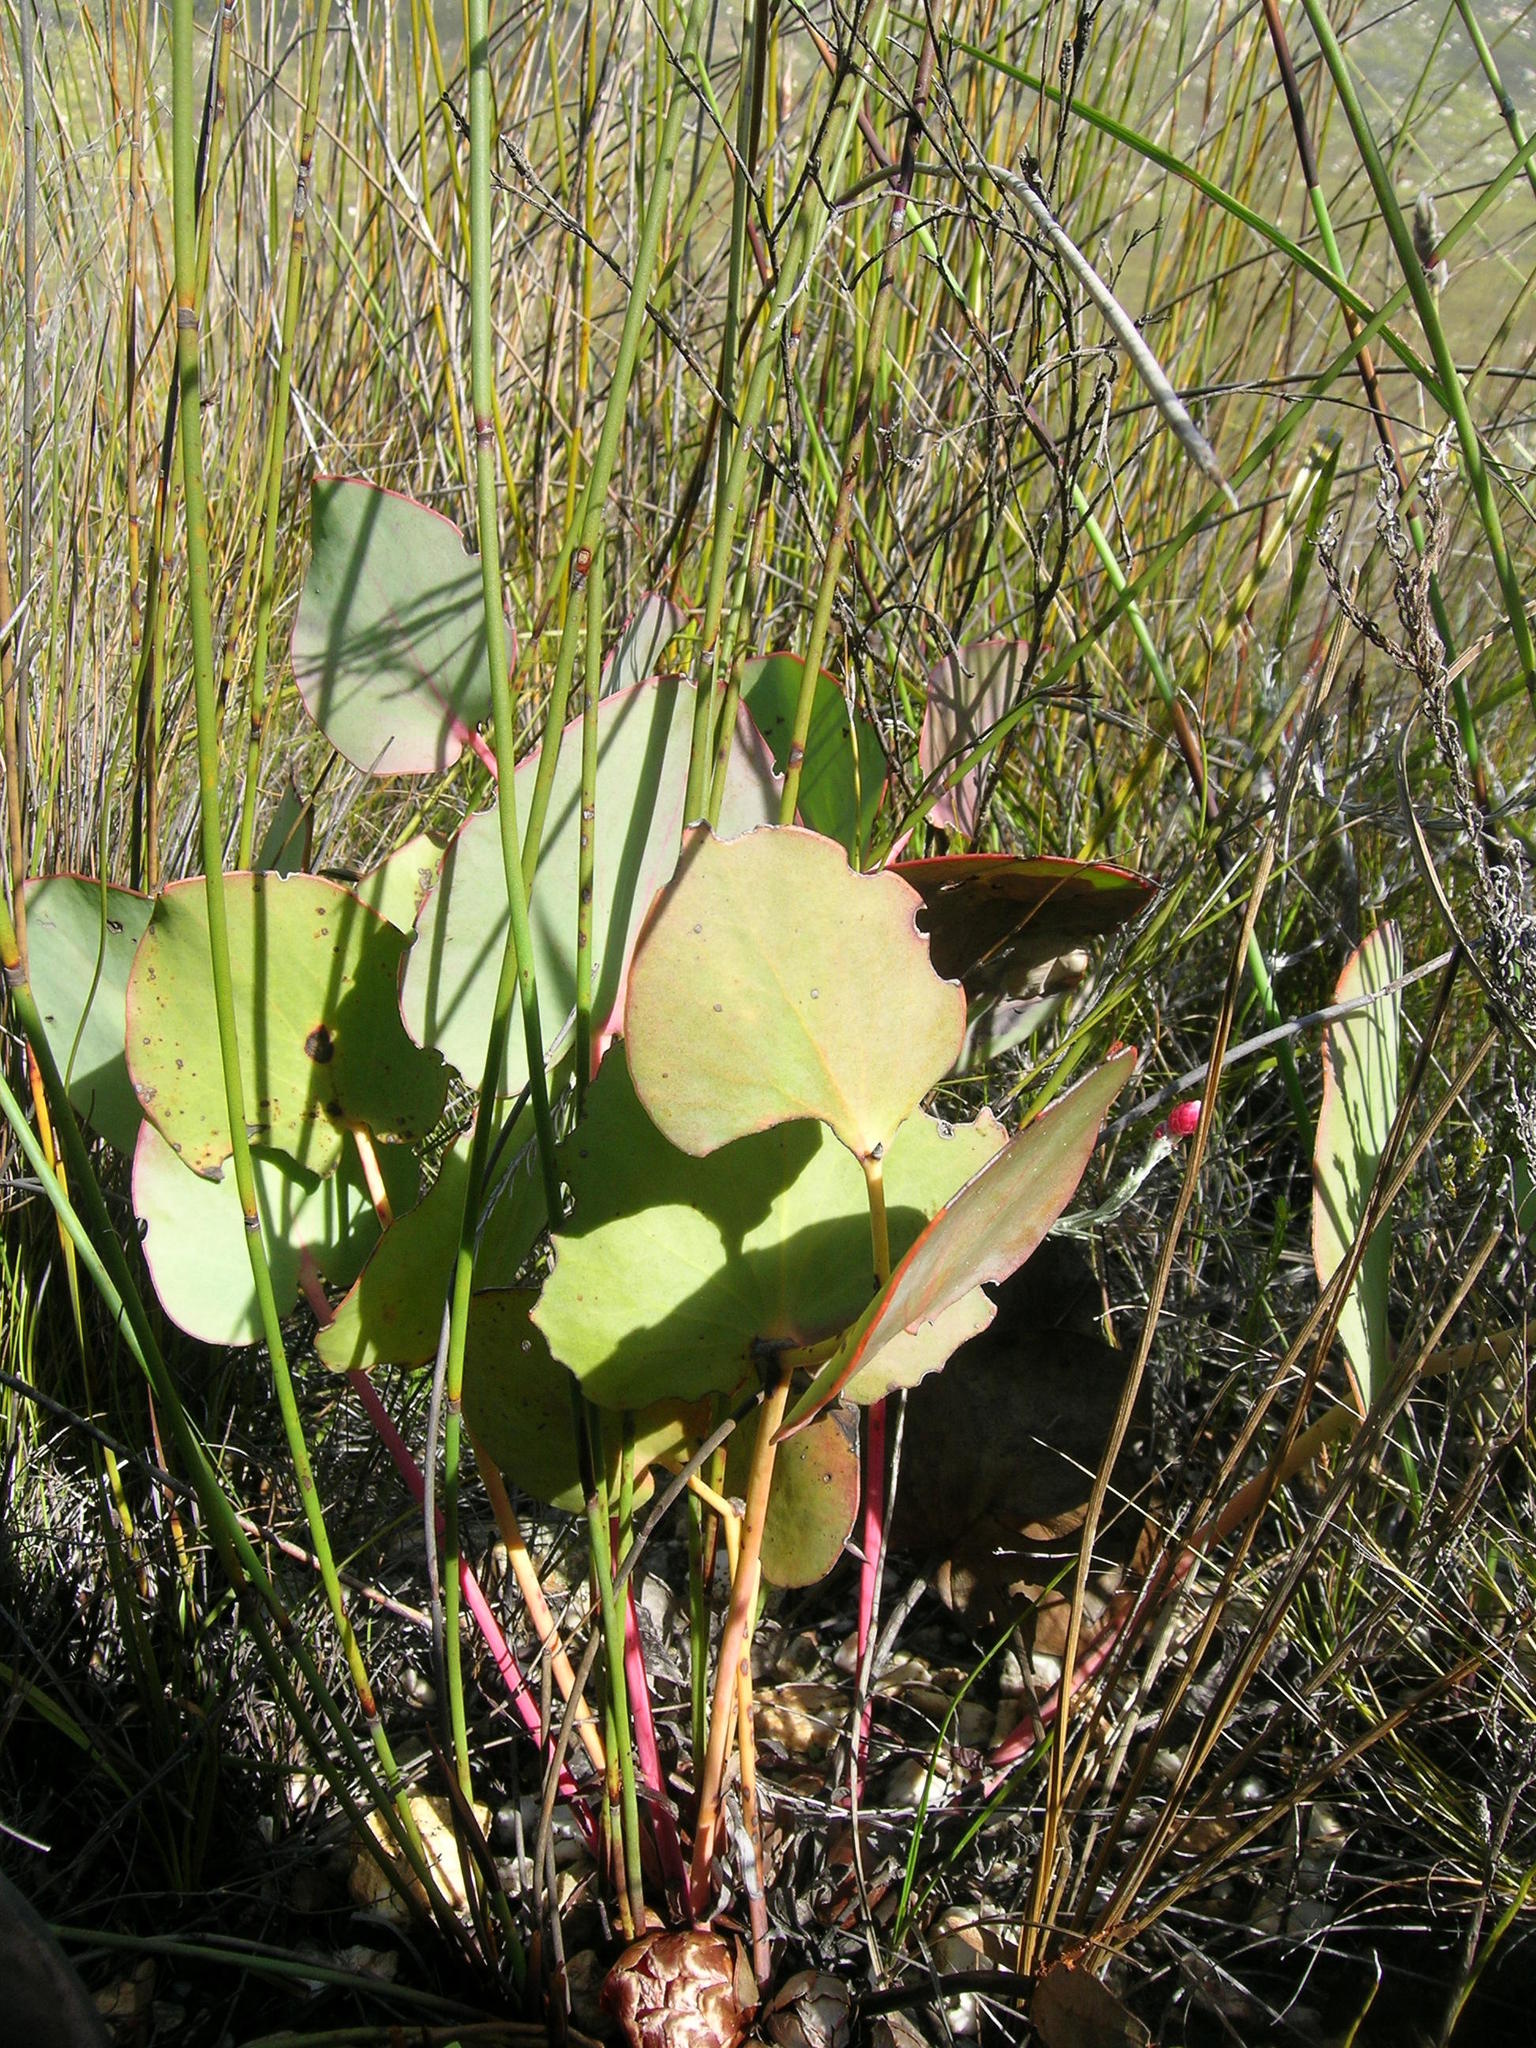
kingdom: Plantae
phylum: Tracheophyta
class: Magnoliopsida
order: Proteales
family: Proteaceae
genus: Protea
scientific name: Protea cordata
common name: Heart-leaf sugarbush
